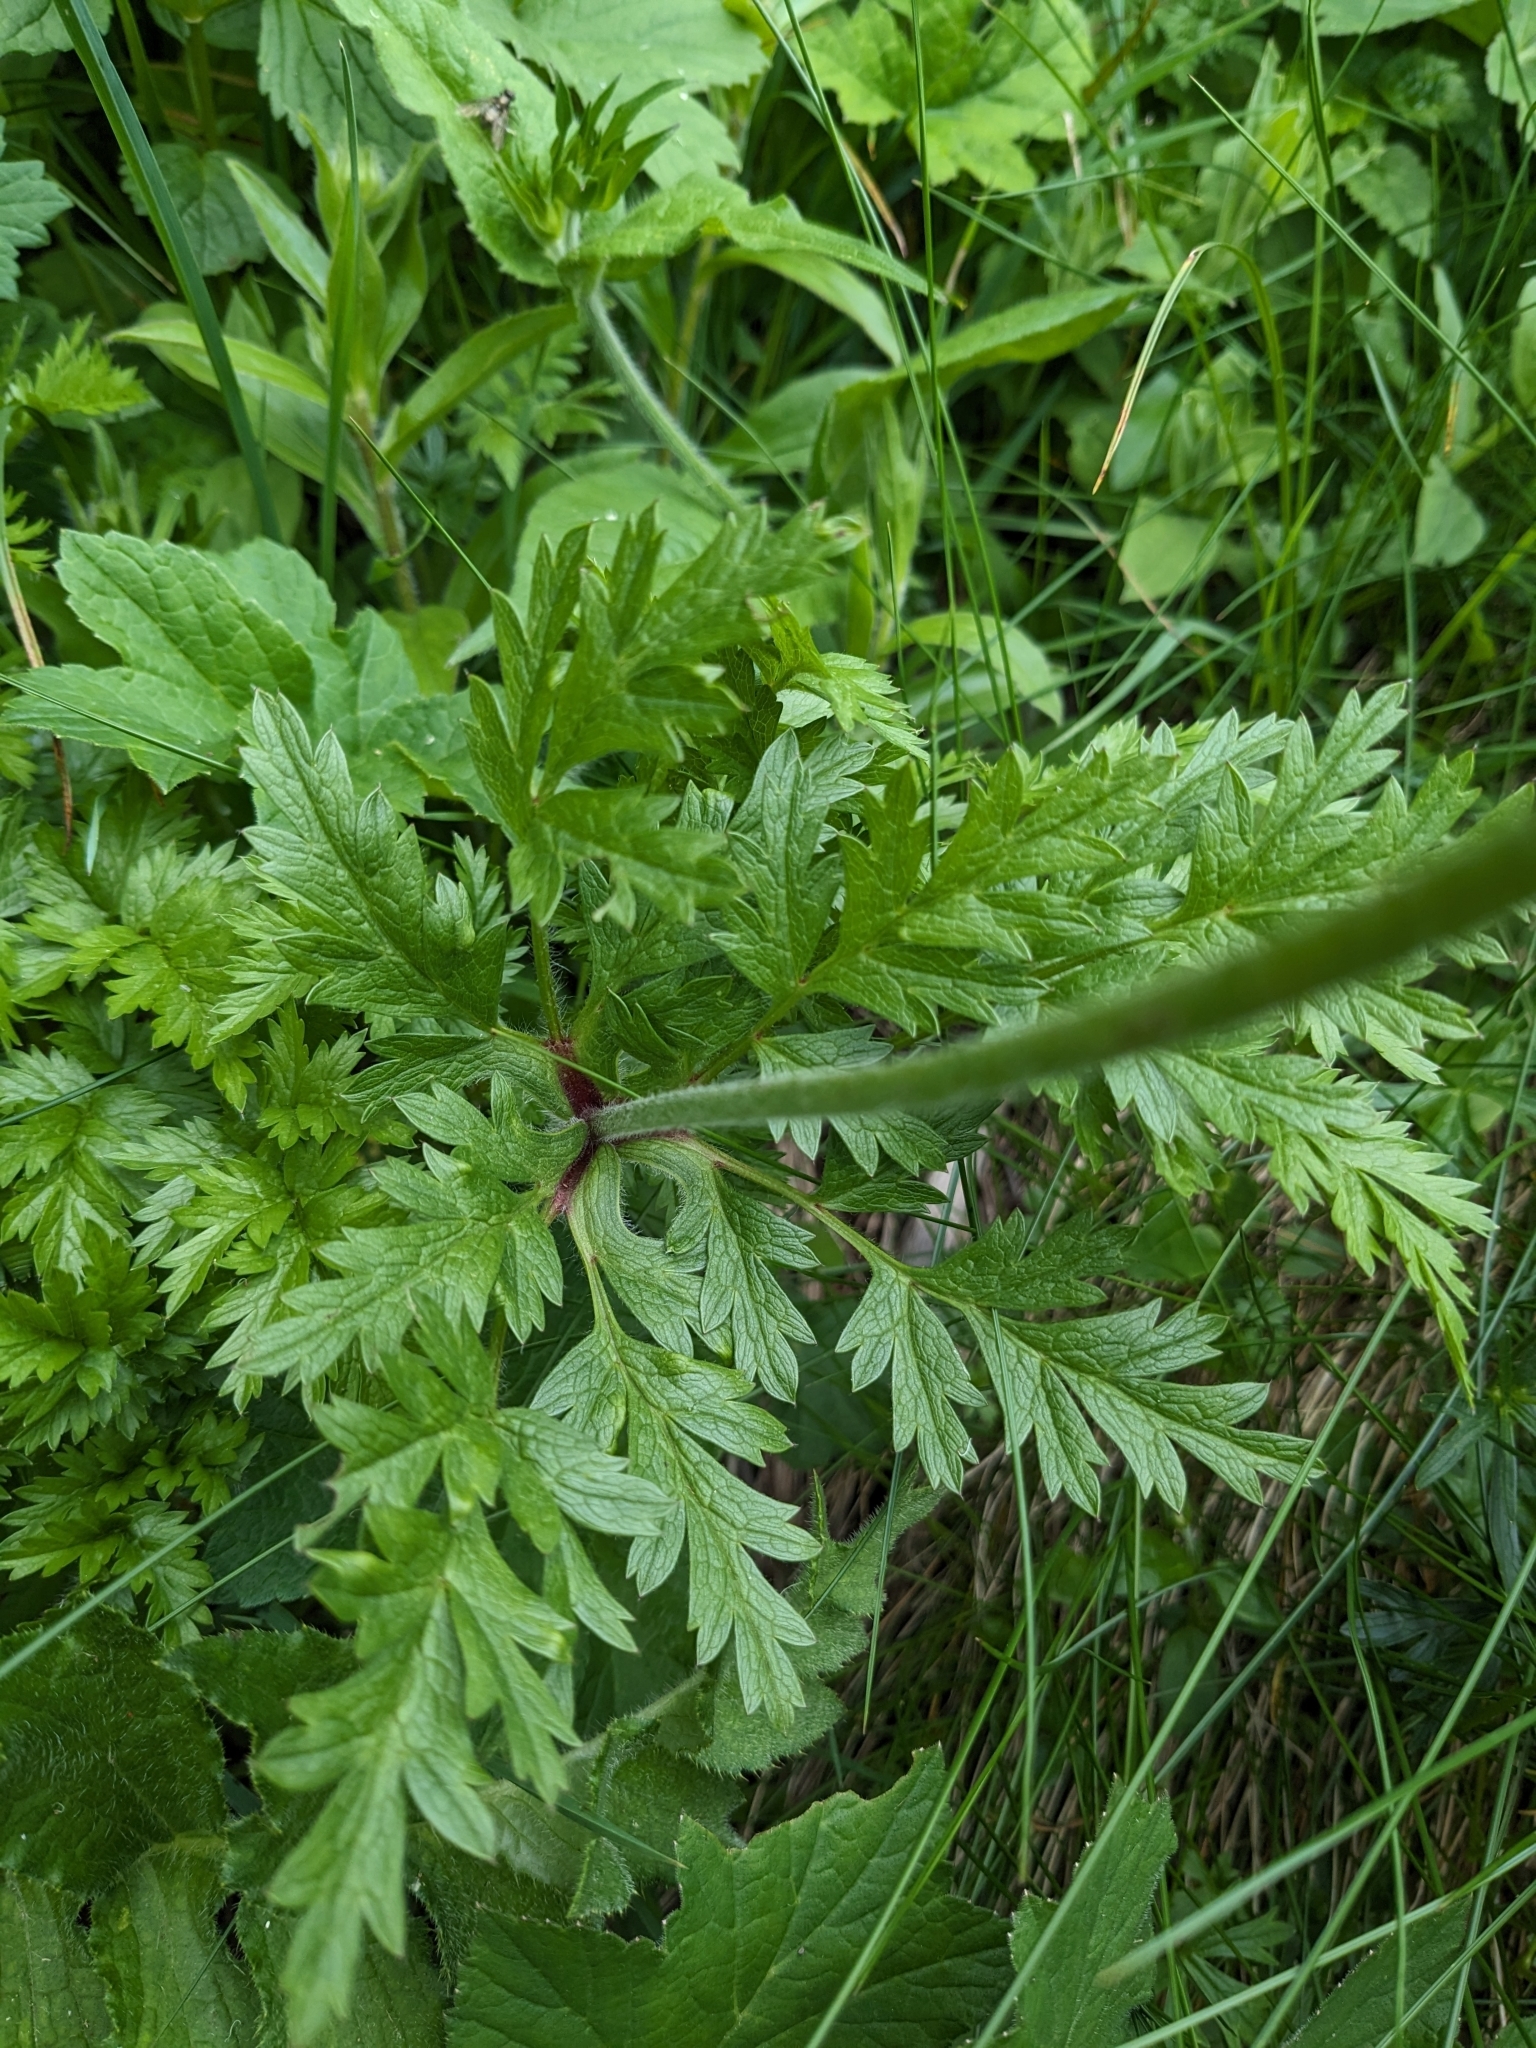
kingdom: Plantae
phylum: Tracheophyta
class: Magnoliopsida
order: Ranunculales
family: Ranunculaceae
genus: Pulsatilla
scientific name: Pulsatilla alpina
